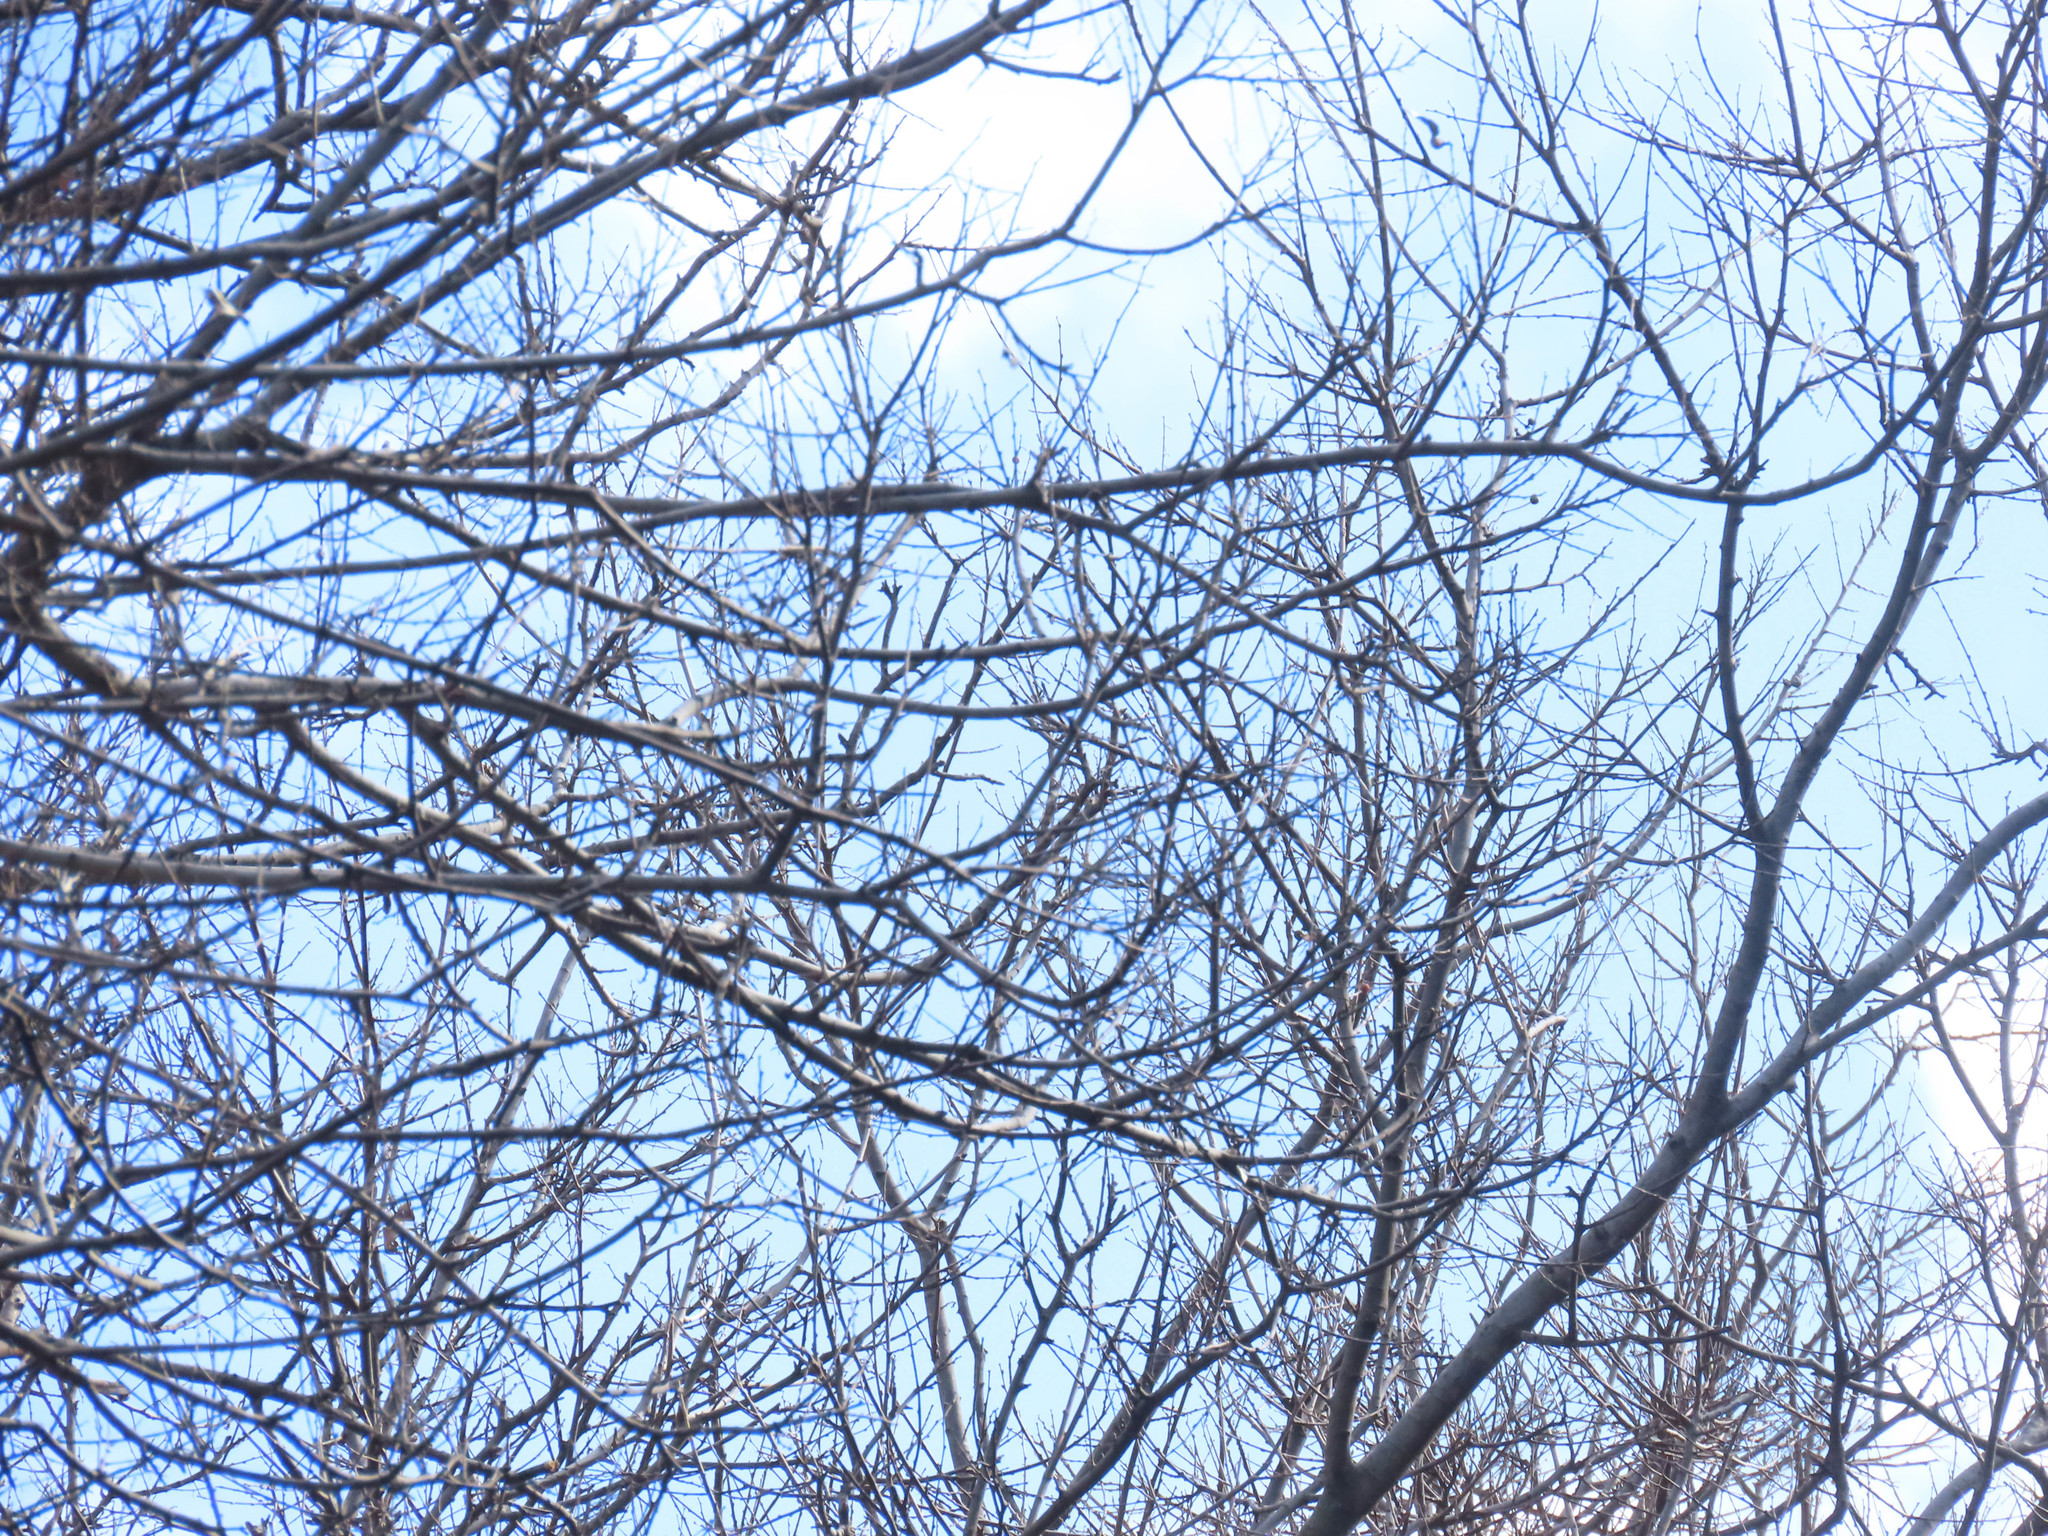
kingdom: Plantae
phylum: Tracheophyta
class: Magnoliopsida
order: Rosales
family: Cannabaceae
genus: Celtis
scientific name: Celtis reticulata
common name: Netleaf hackberry
